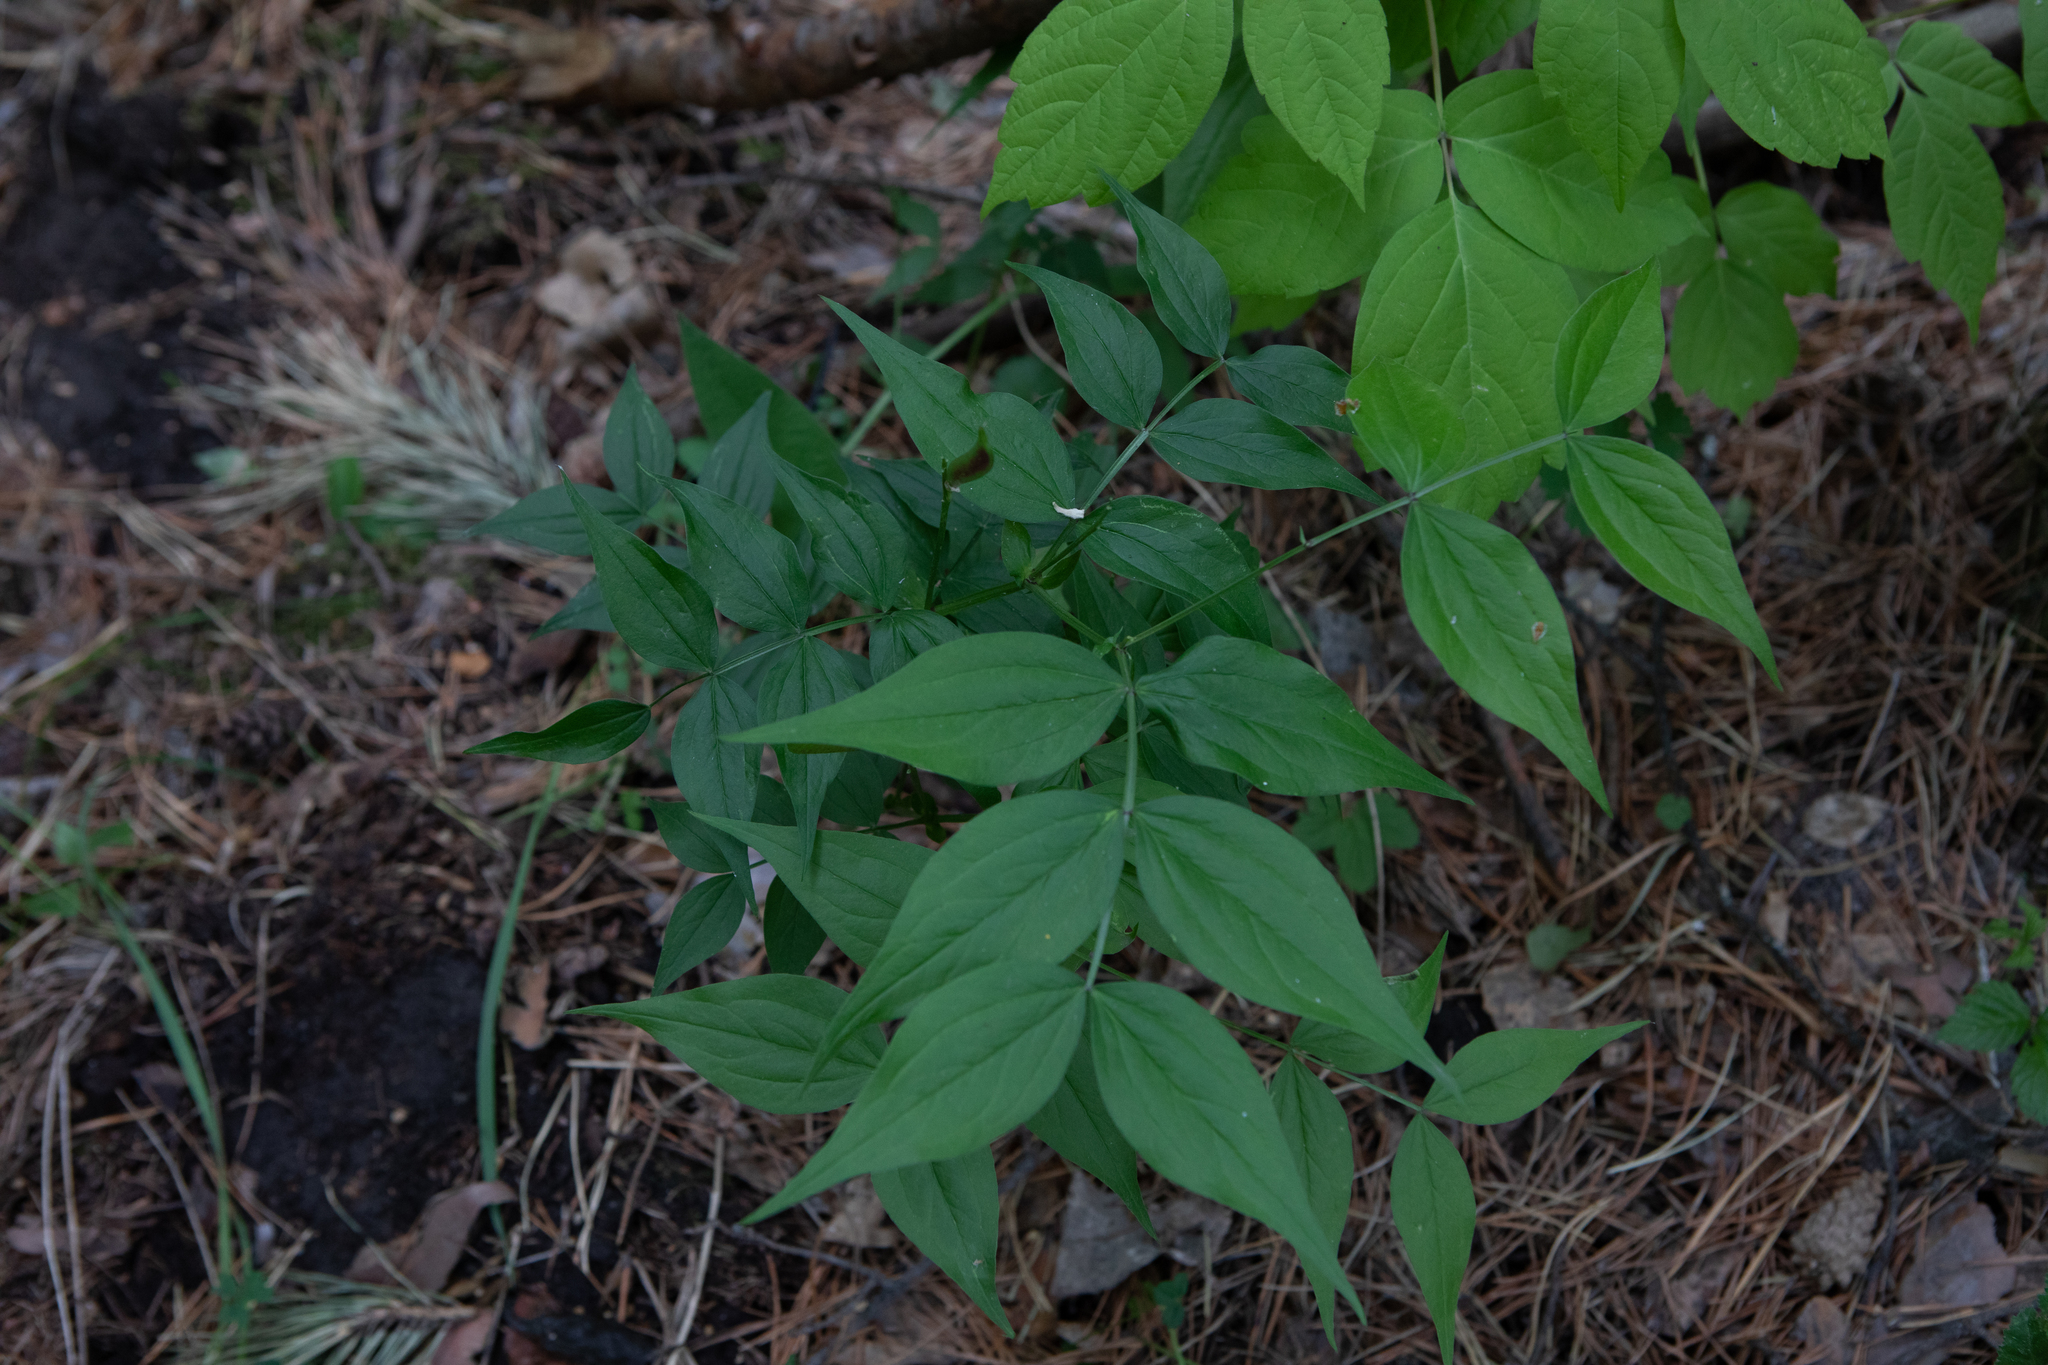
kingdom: Plantae
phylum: Tracheophyta
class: Magnoliopsida
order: Fabales
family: Fabaceae
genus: Lathyrus
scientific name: Lathyrus vernus
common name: Spring pea
